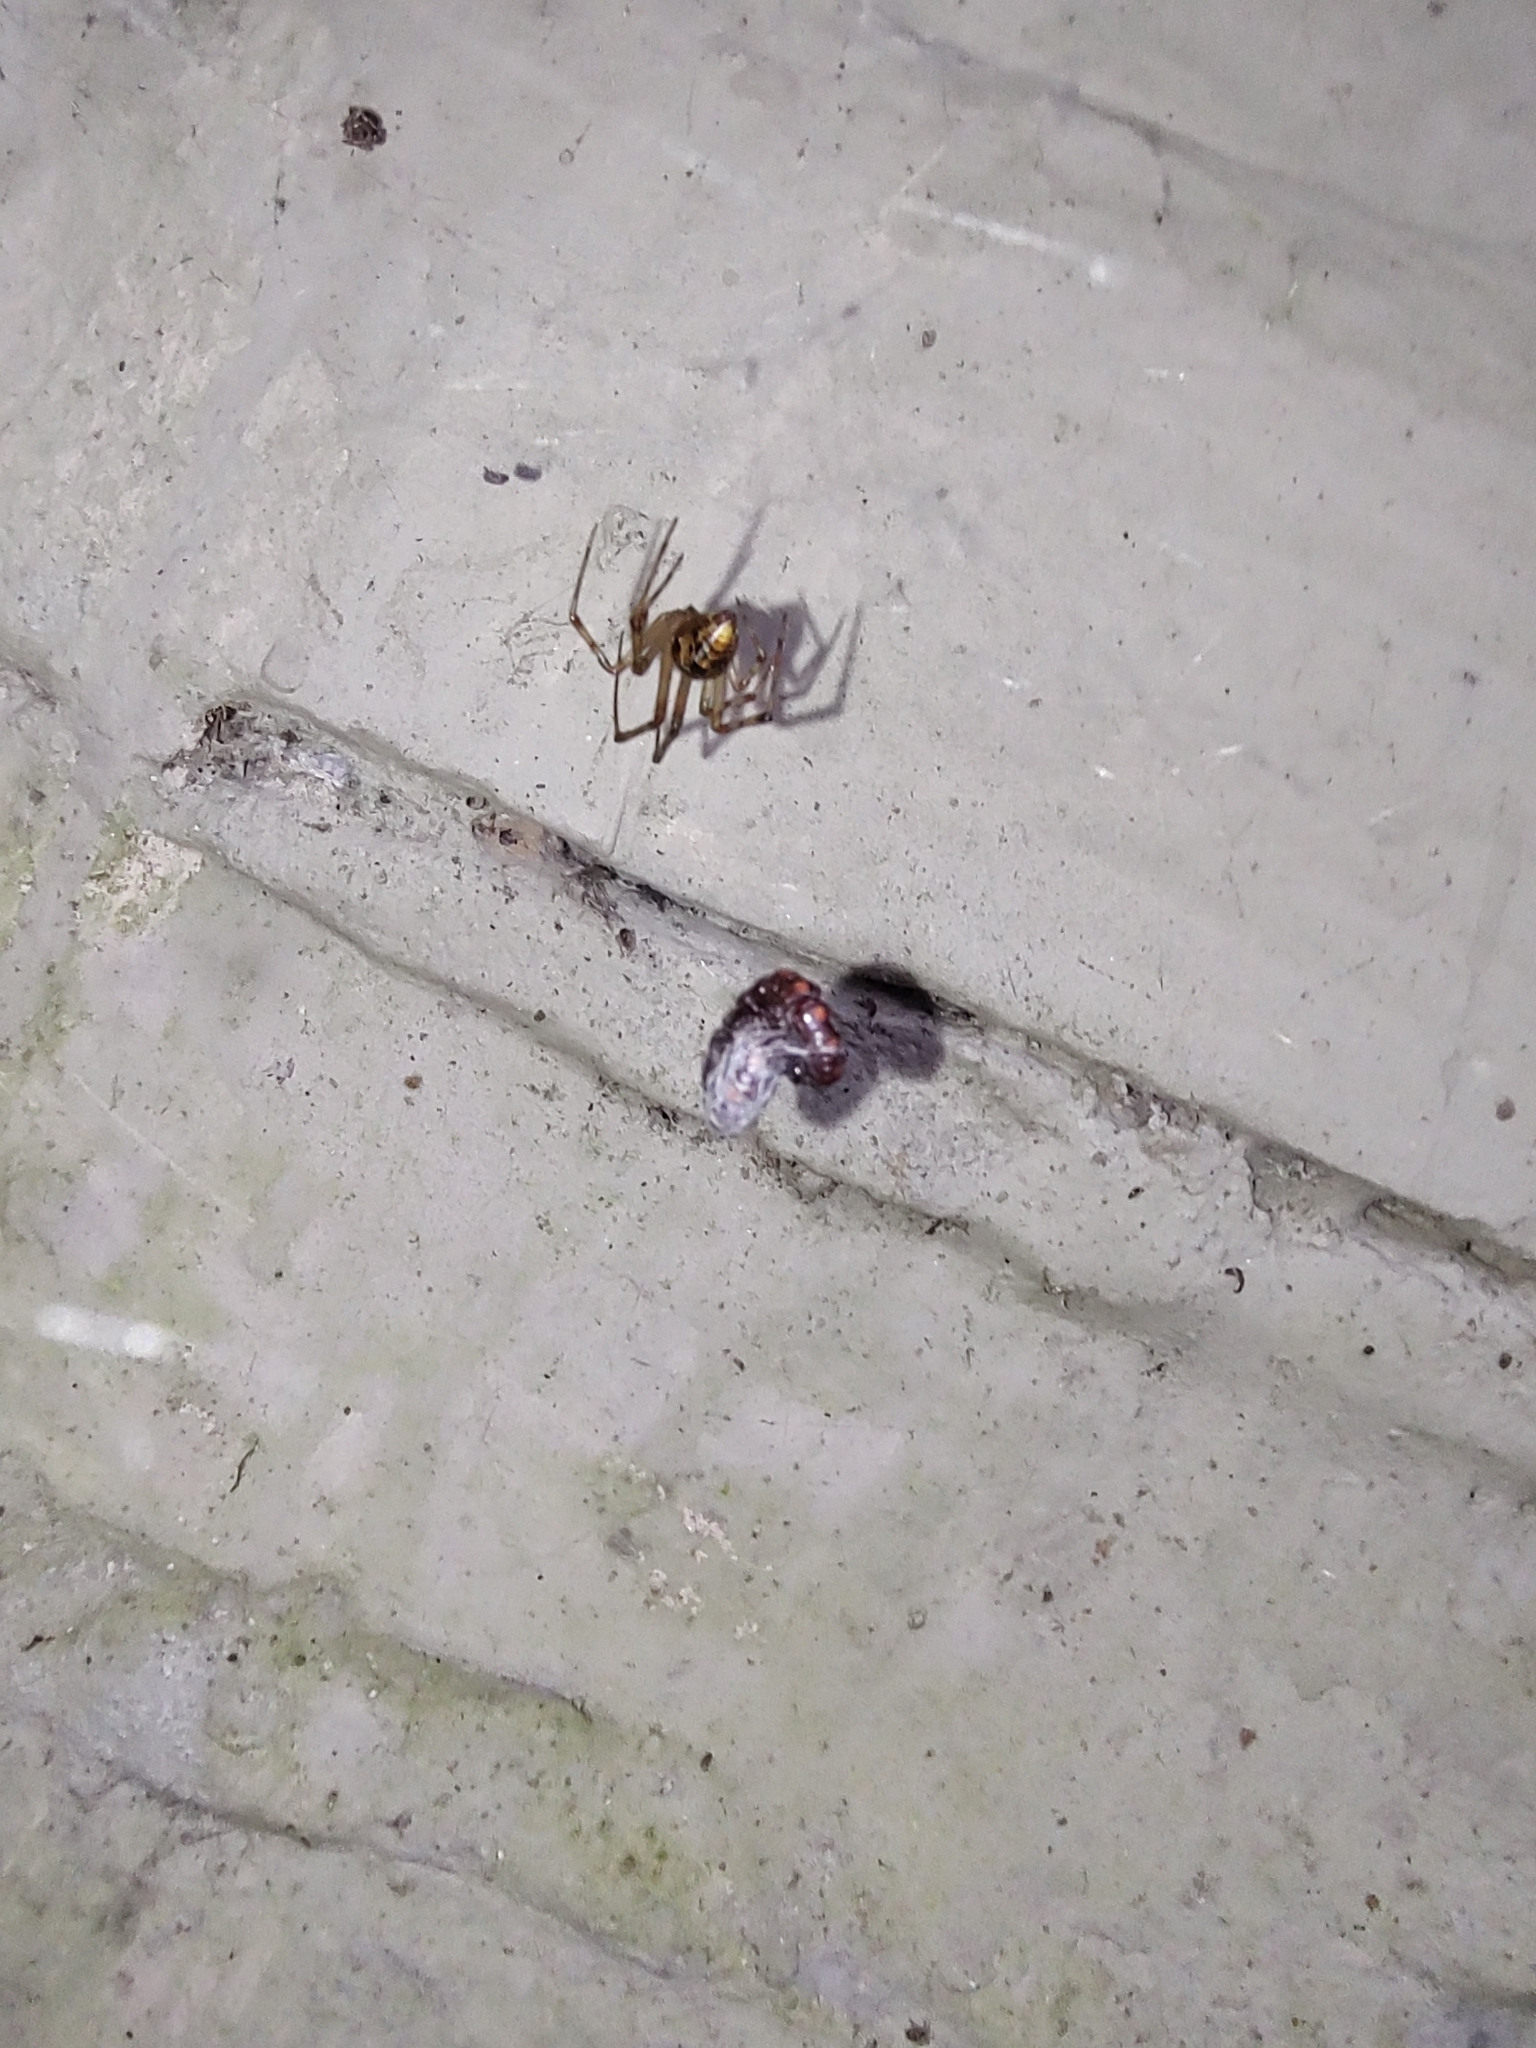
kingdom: Animalia
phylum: Arthropoda
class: Arachnida
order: Araneae
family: Theridiidae
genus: Parasteatoda
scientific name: Parasteatoda tepidariorum
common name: Common house spider
